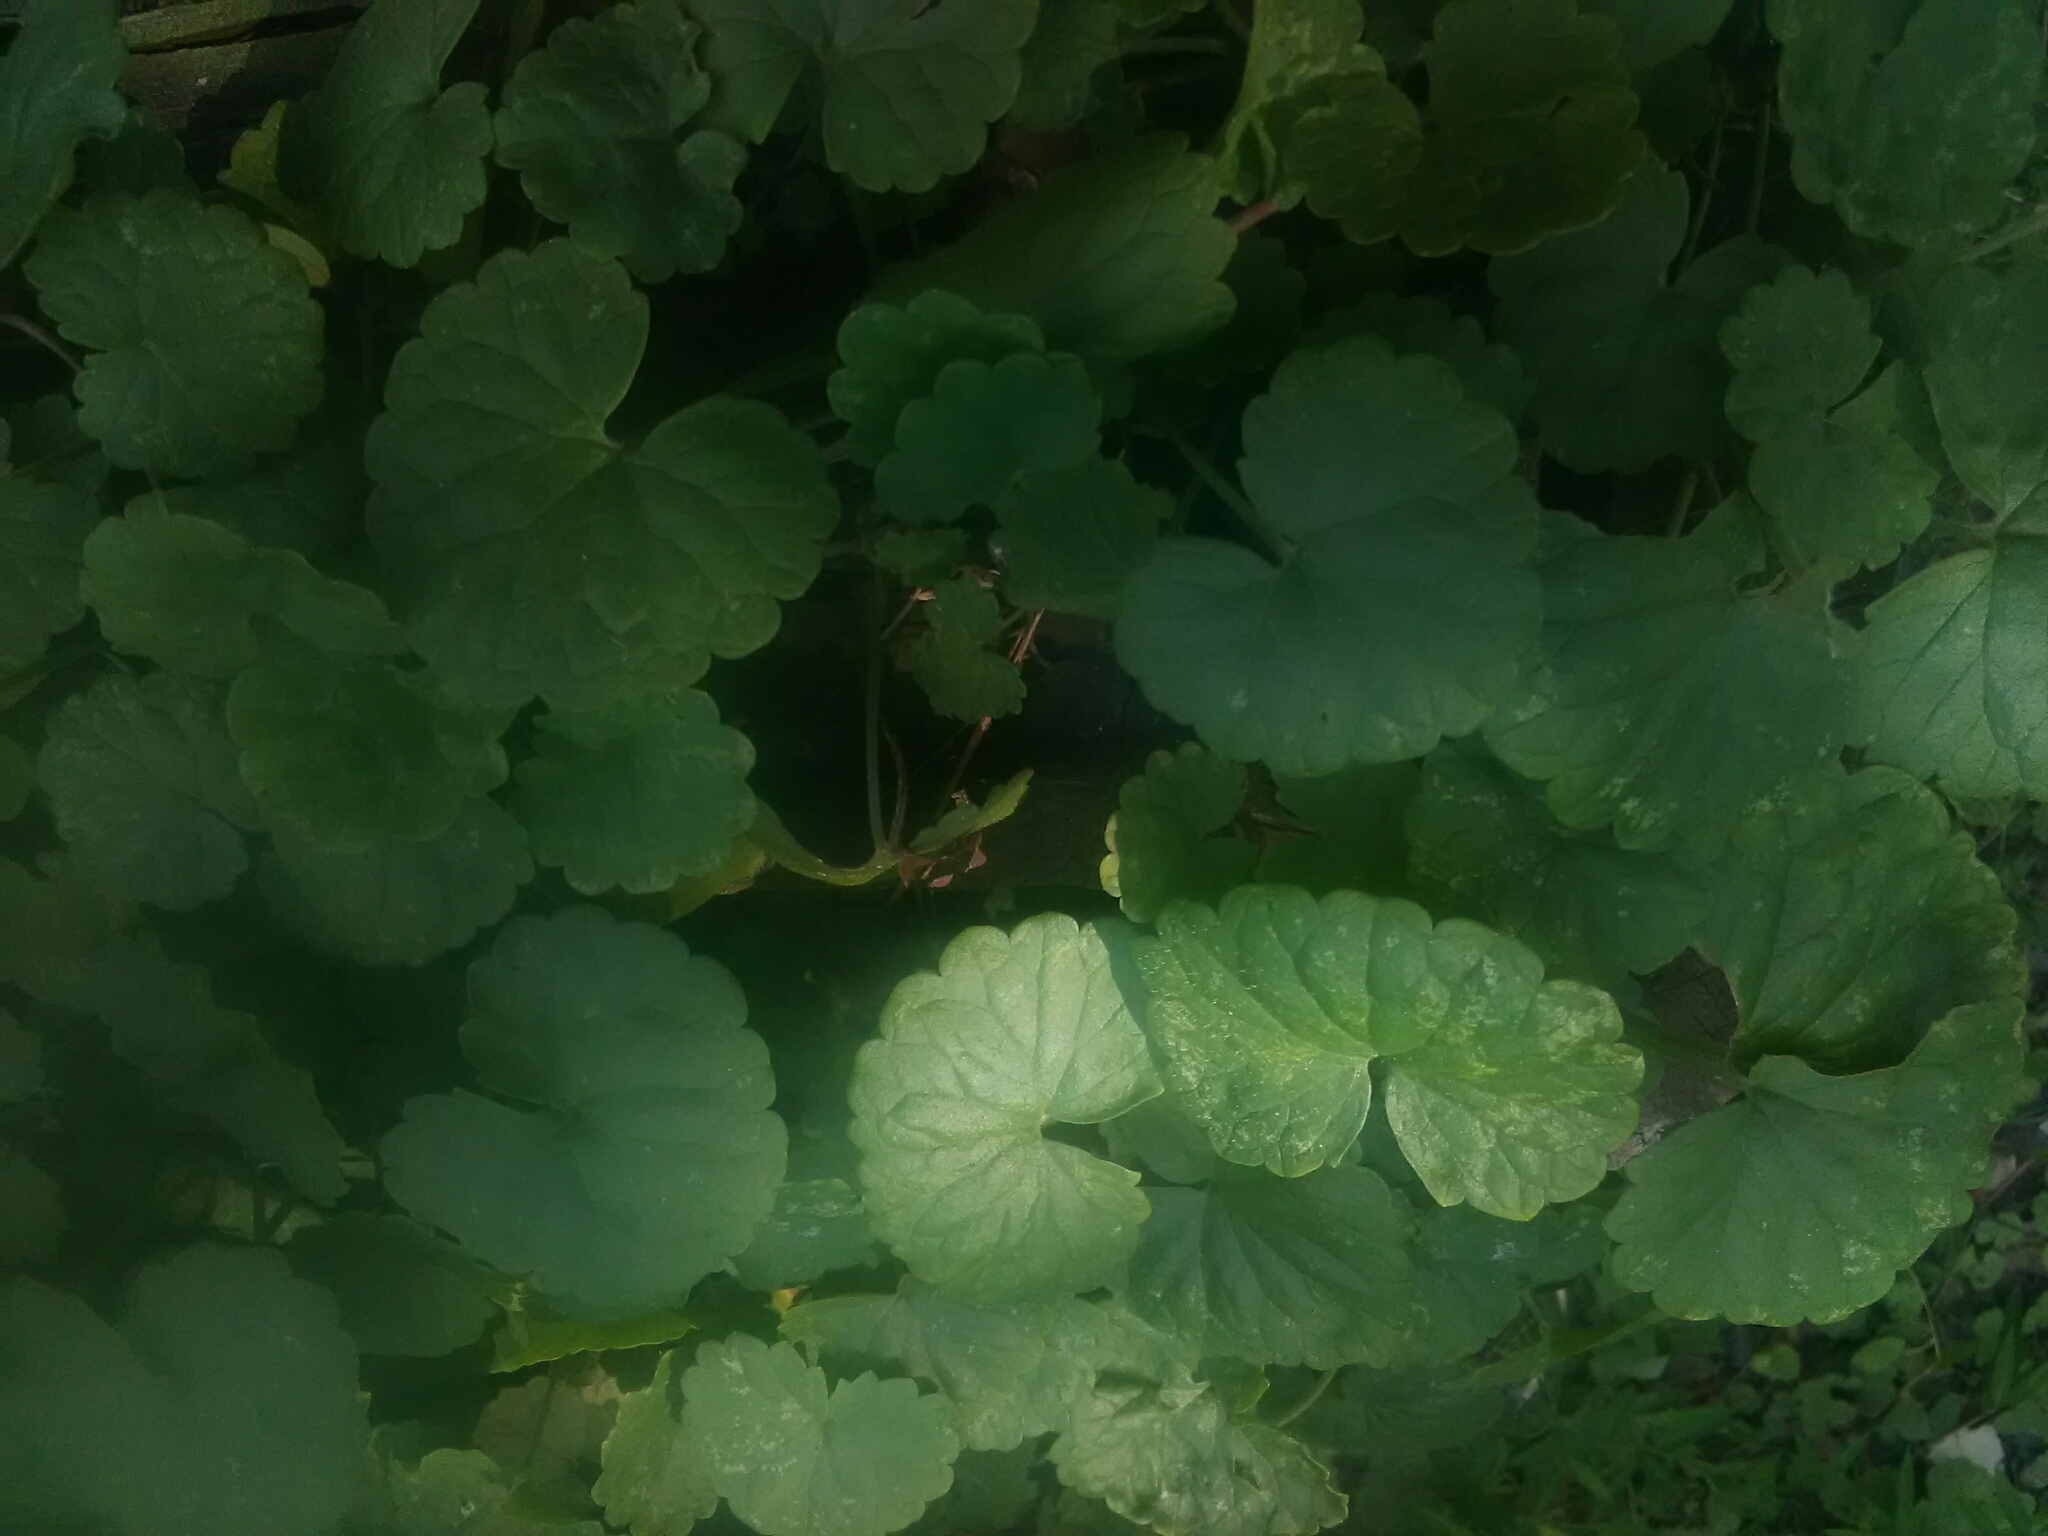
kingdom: Plantae
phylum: Tracheophyta
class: Magnoliopsida
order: Lamiales
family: Lamiaceae
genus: Glechoma
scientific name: Glechoma hederacea
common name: Ground ivy
